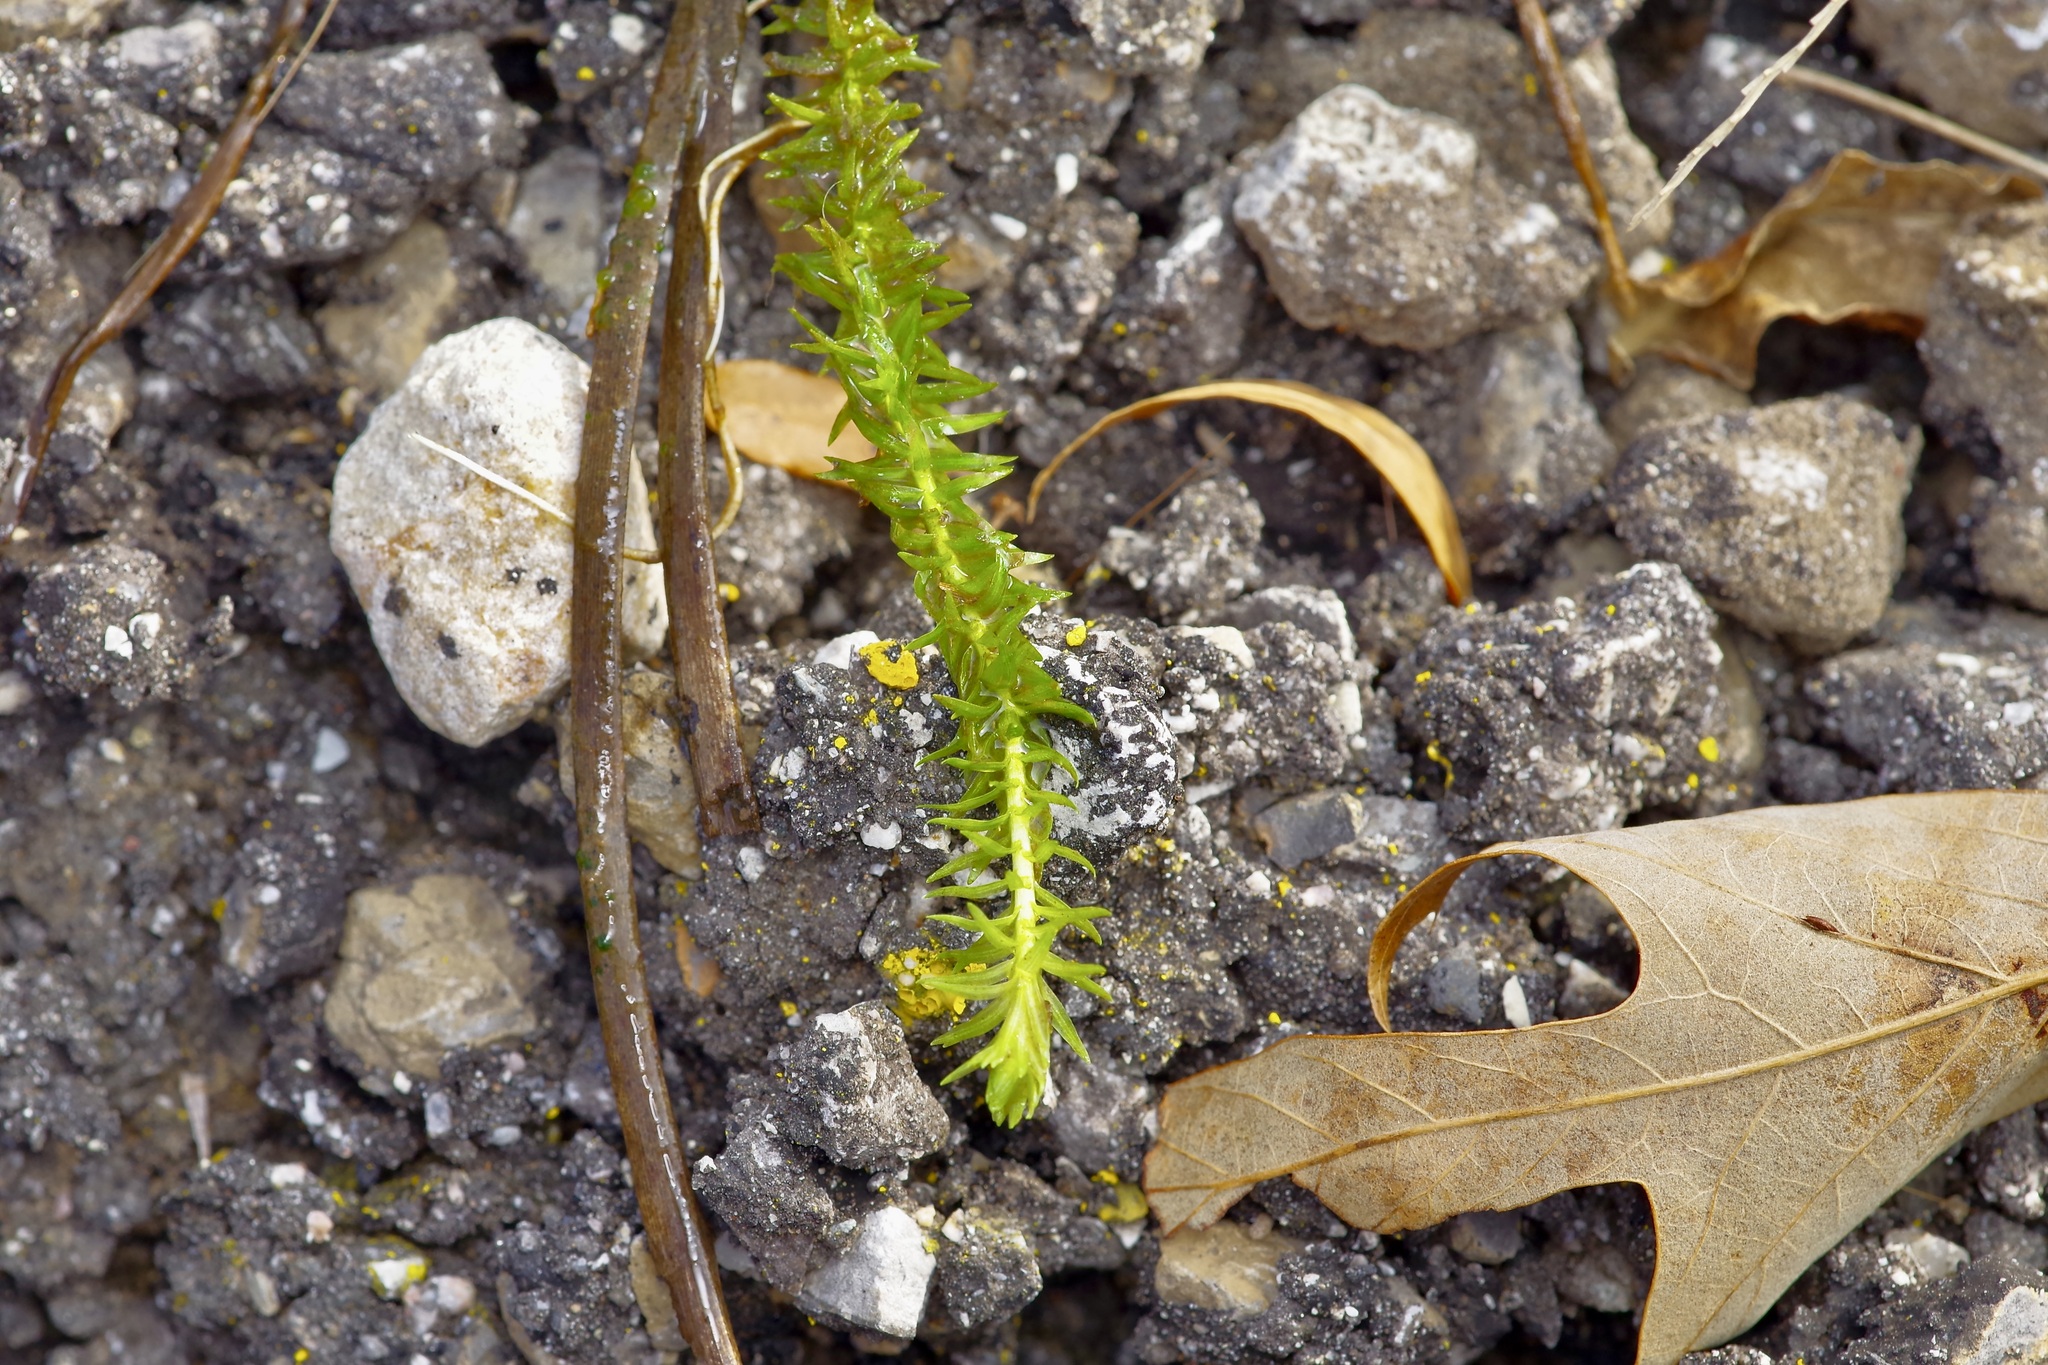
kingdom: Plantae
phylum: Tracheophyta
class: Liliopsida
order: Poales
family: Mayacaceae
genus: Mayaca
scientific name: Mayaca fluviatilis
